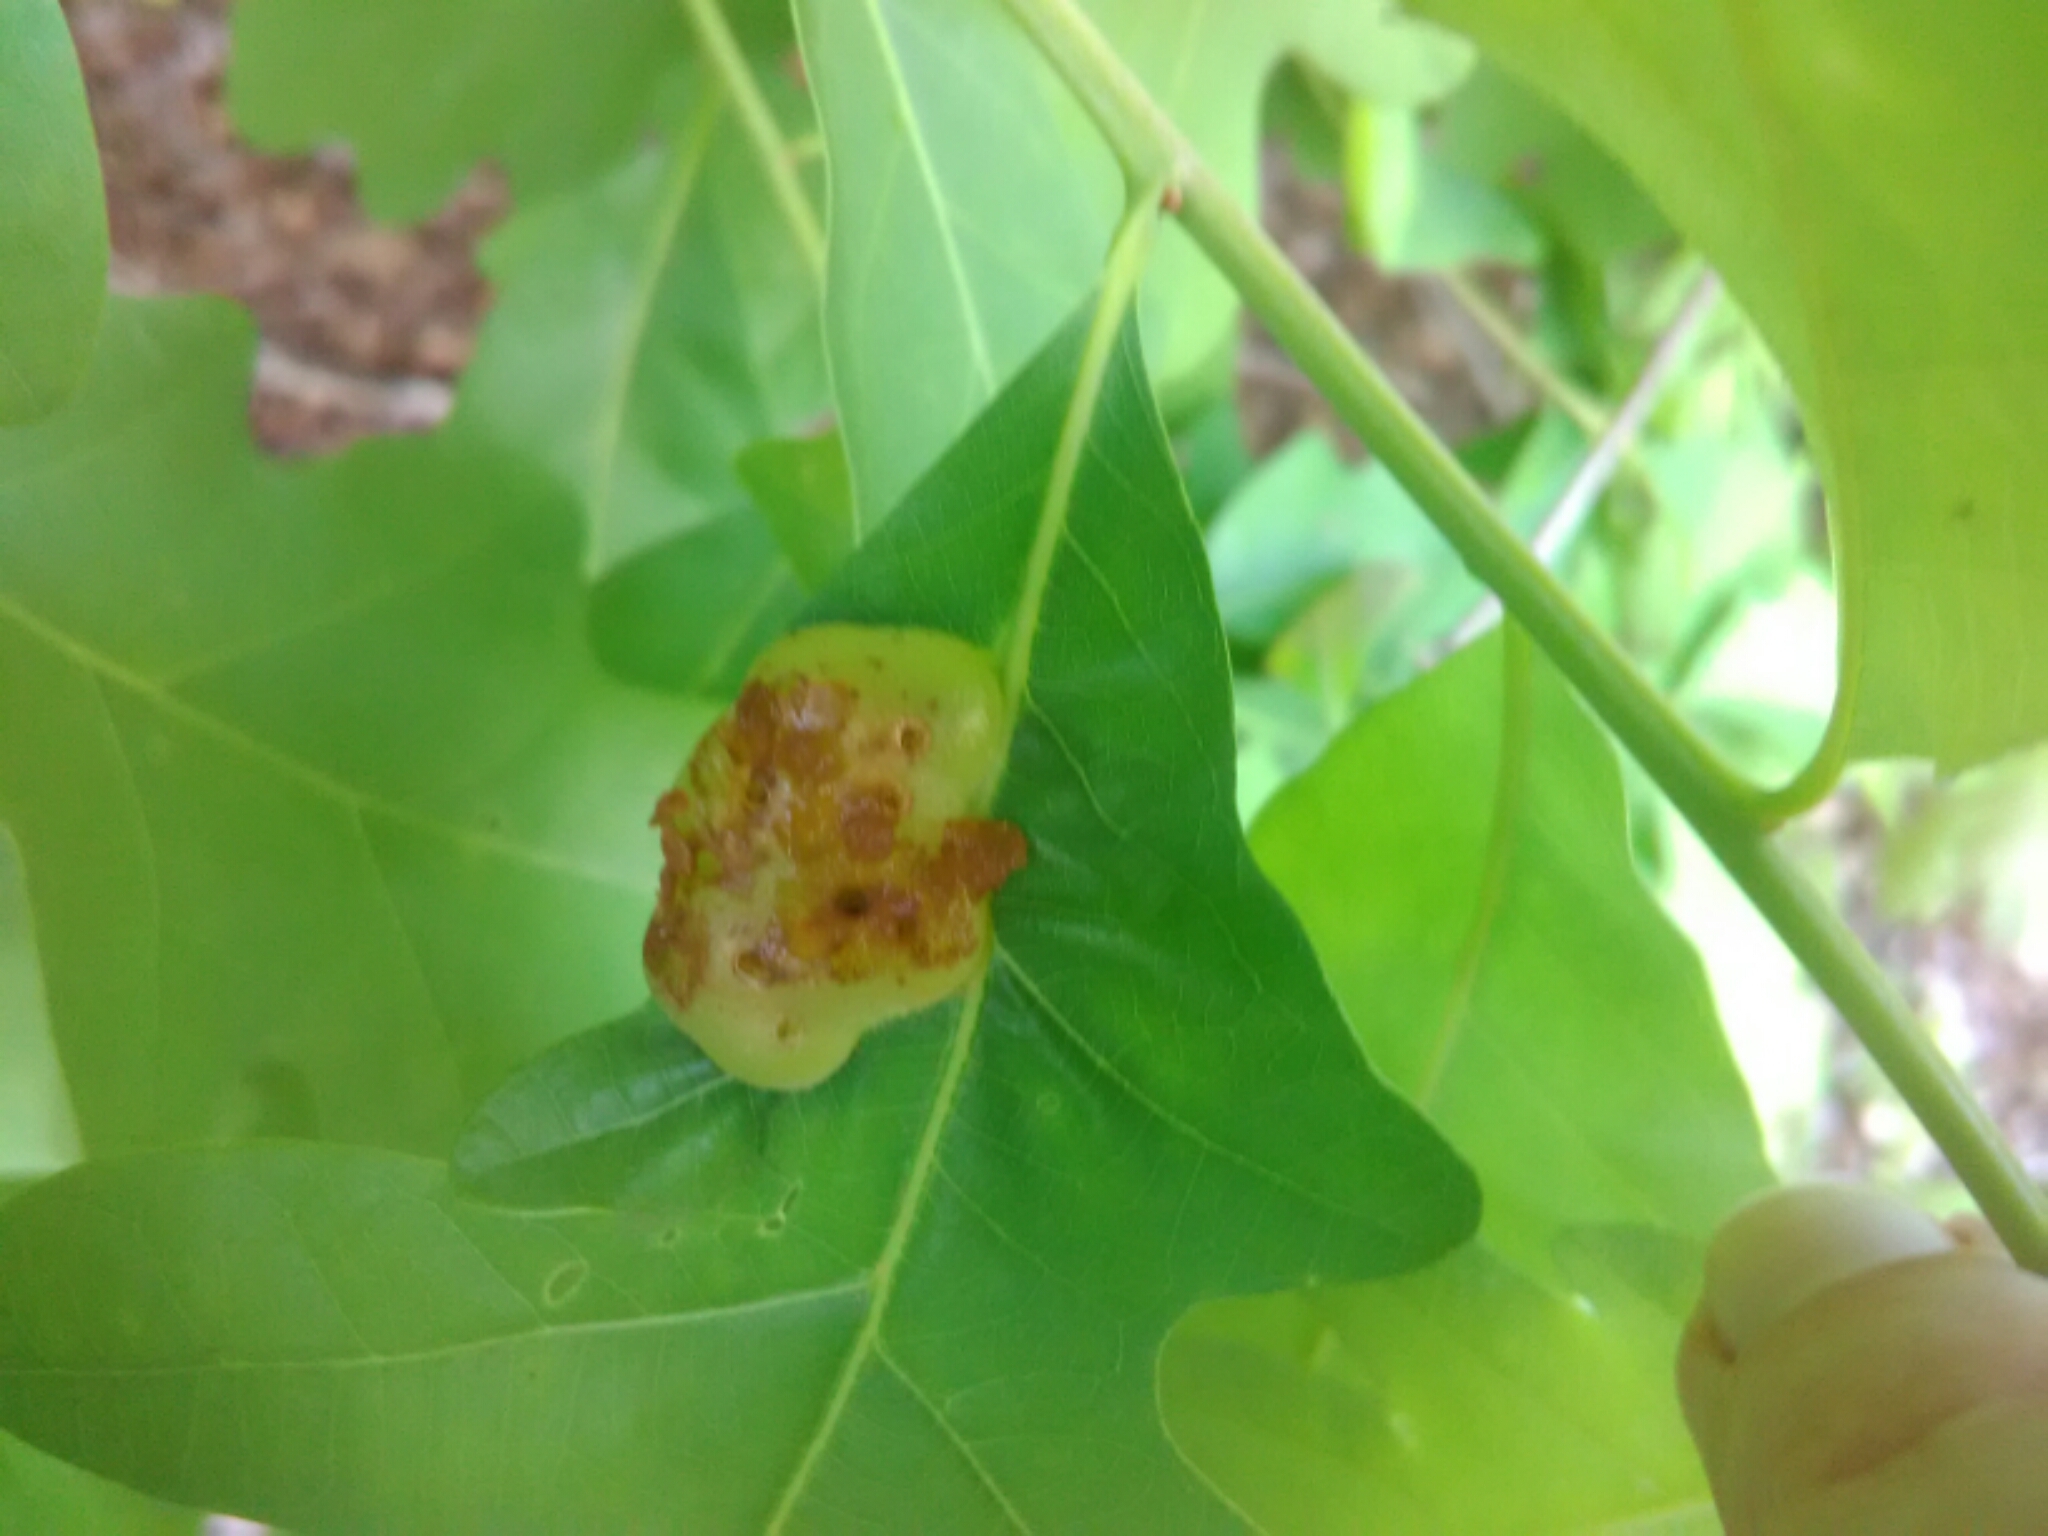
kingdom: Animalia
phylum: Arthropoda
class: Insecta
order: Hymenoptera
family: Cynipidae
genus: Neuroterus
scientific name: Neuroterus quercusirregularis
